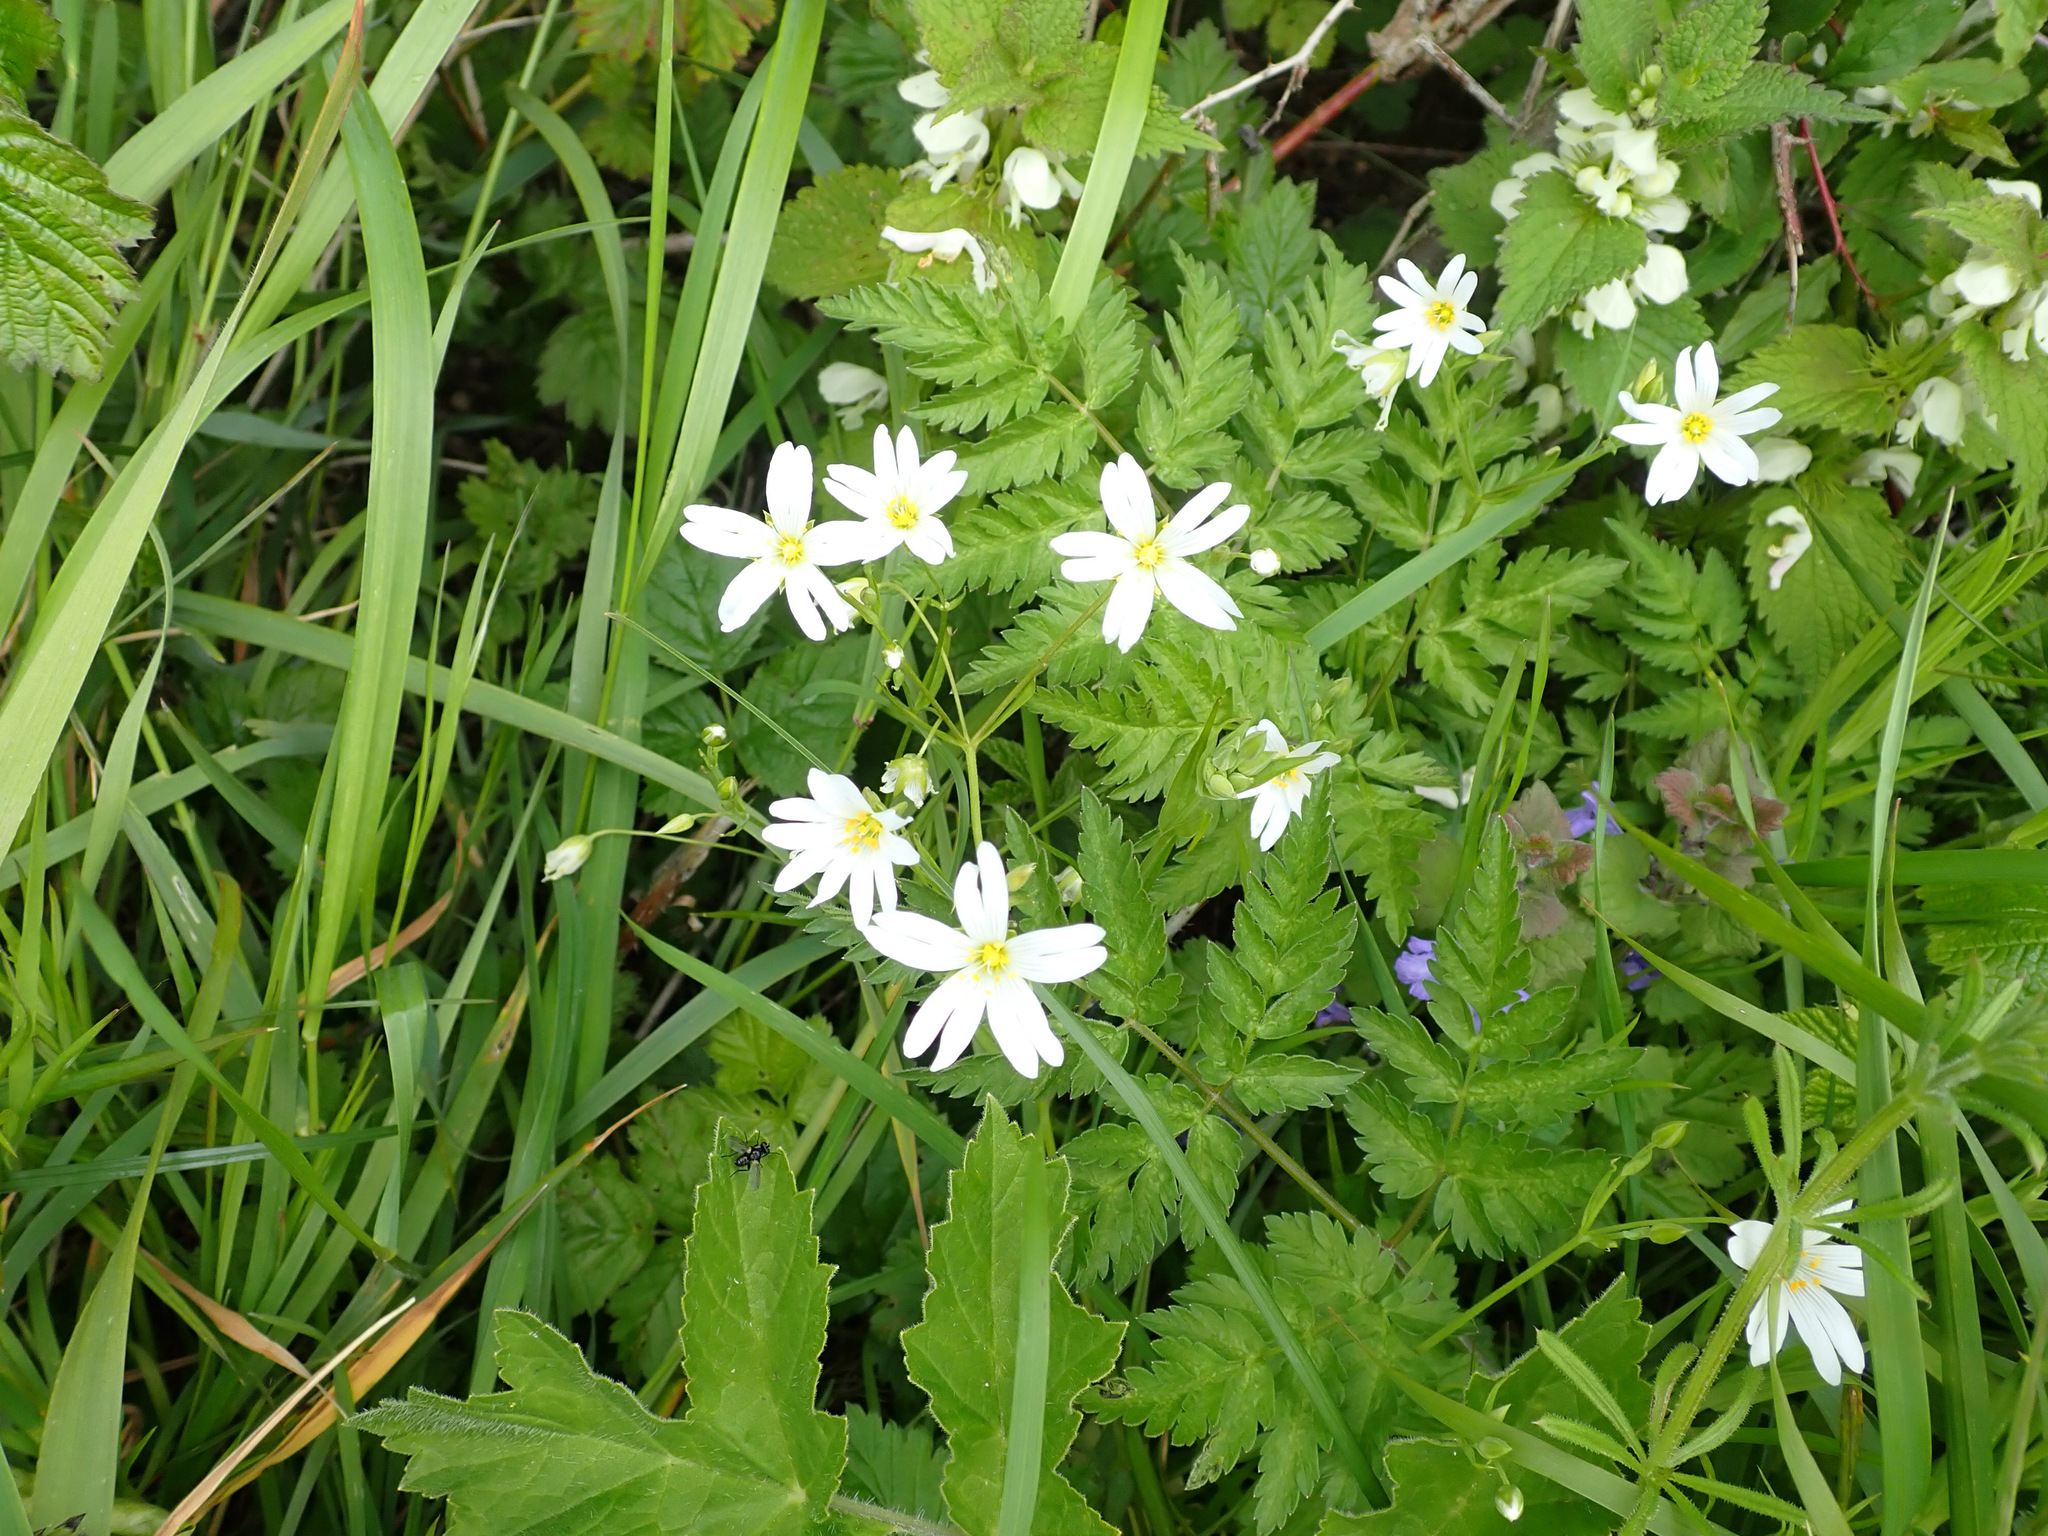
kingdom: Plantae
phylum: Tracheophyta
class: Magnoliopsida
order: Caryophyllales
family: Caryophyllaceae
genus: Rabelera
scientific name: Rabelera holostea
